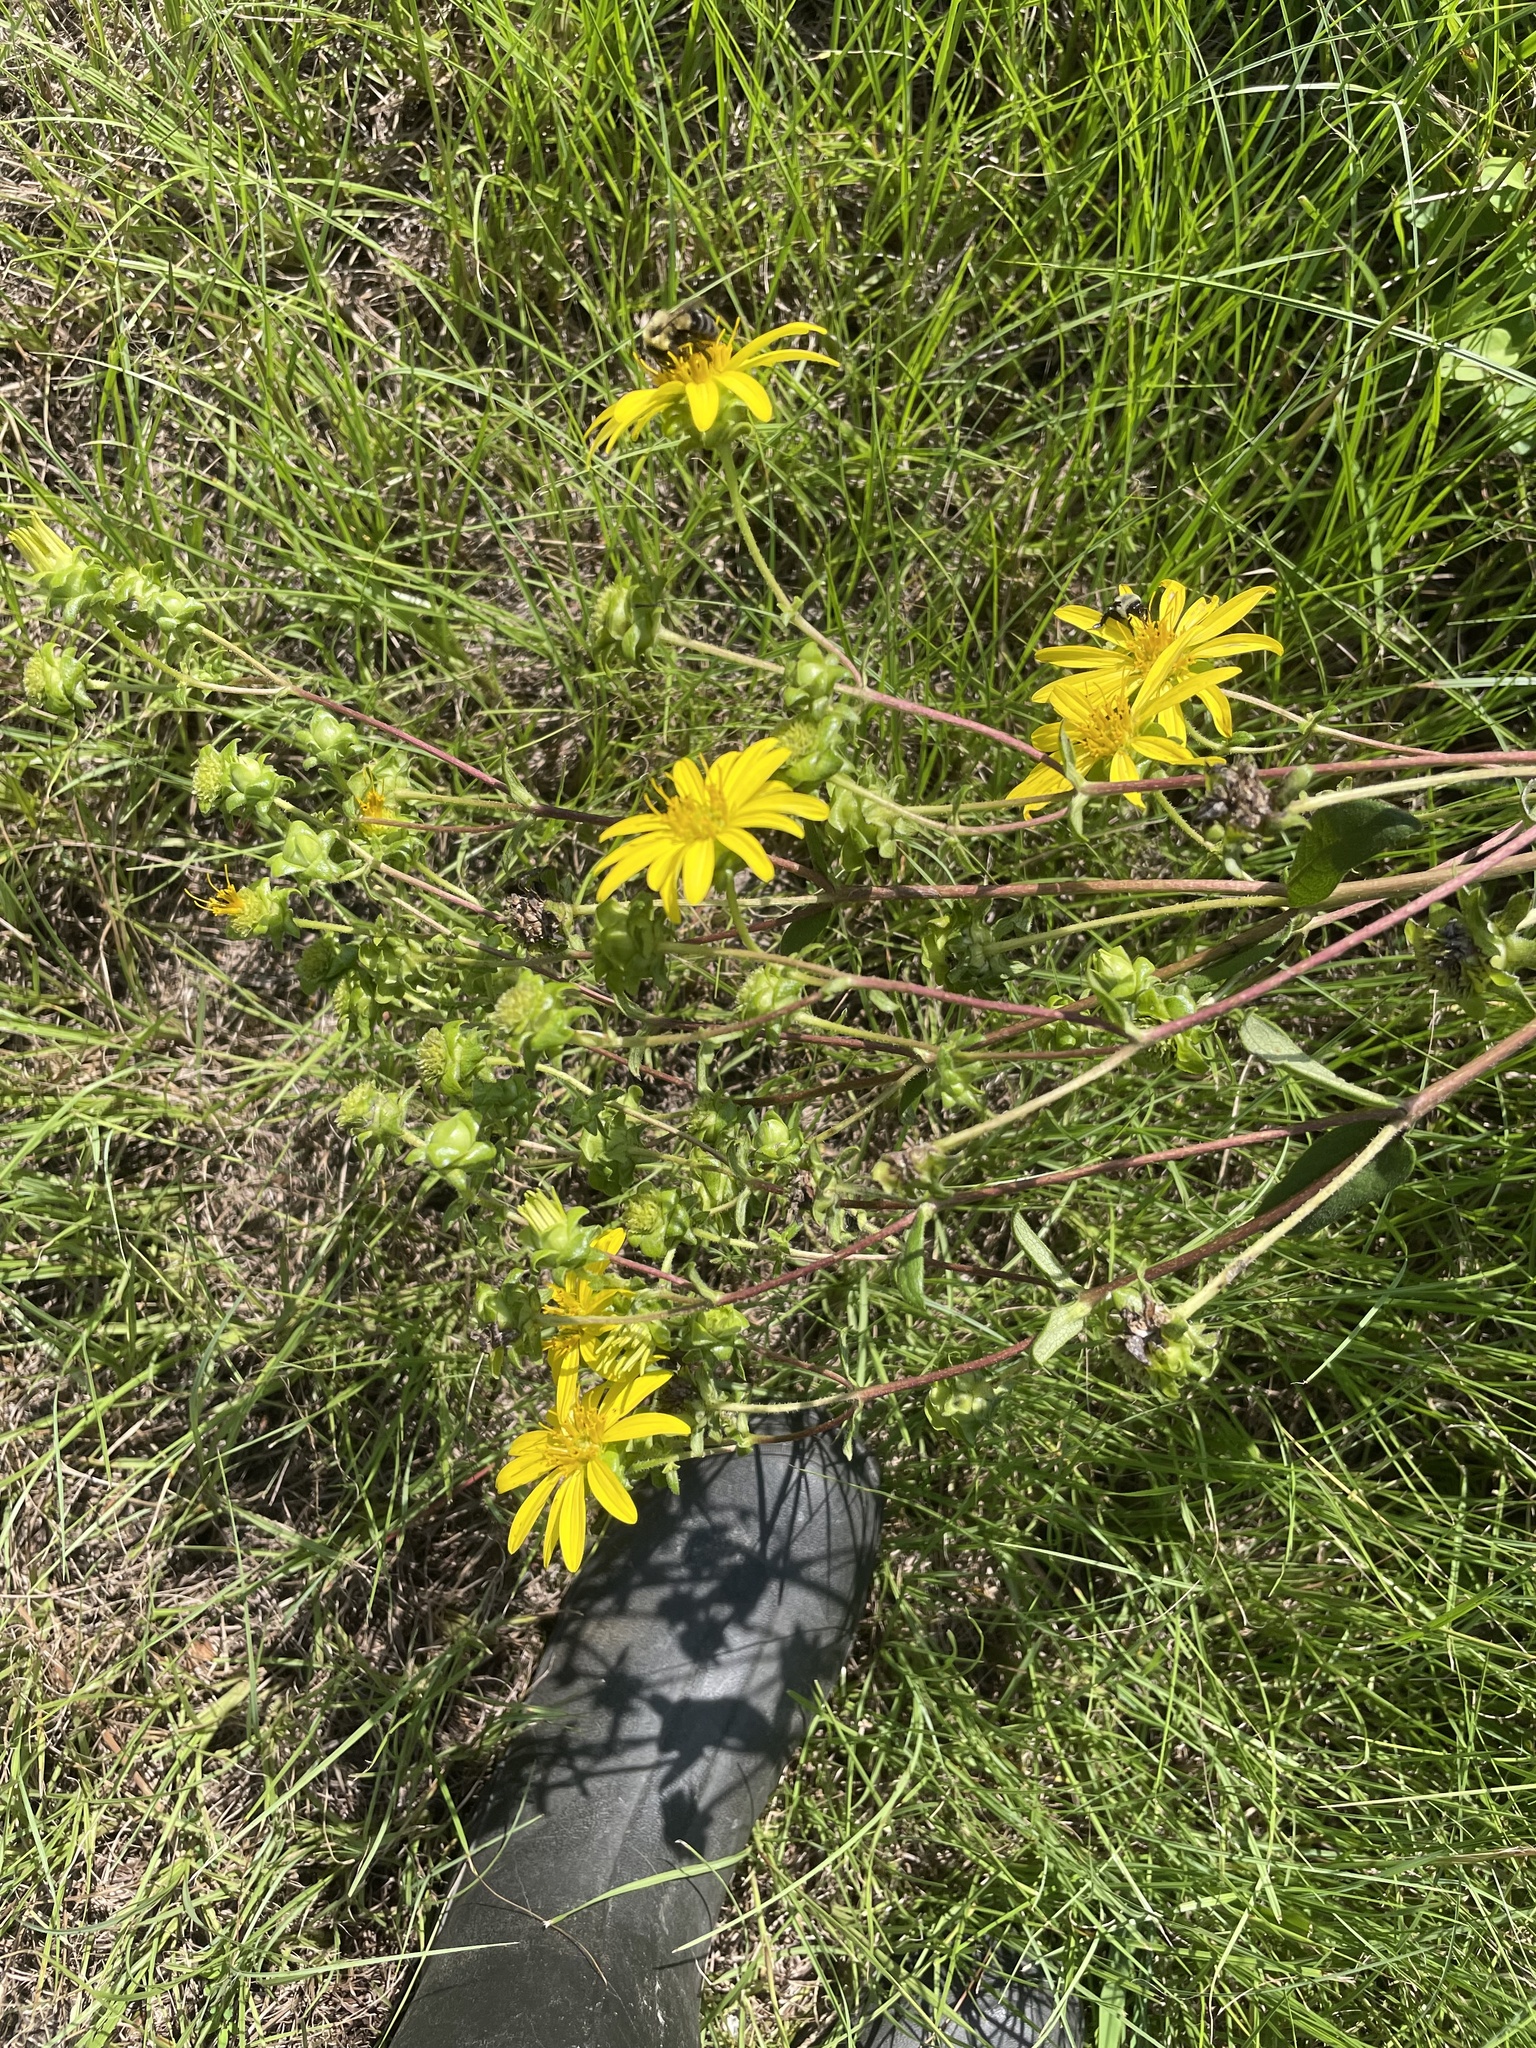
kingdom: Plantae
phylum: Tracheophyta
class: Magnoliopsida
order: Asterales
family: Asteraceae
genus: Silphium
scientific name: Silphium asteriscus
